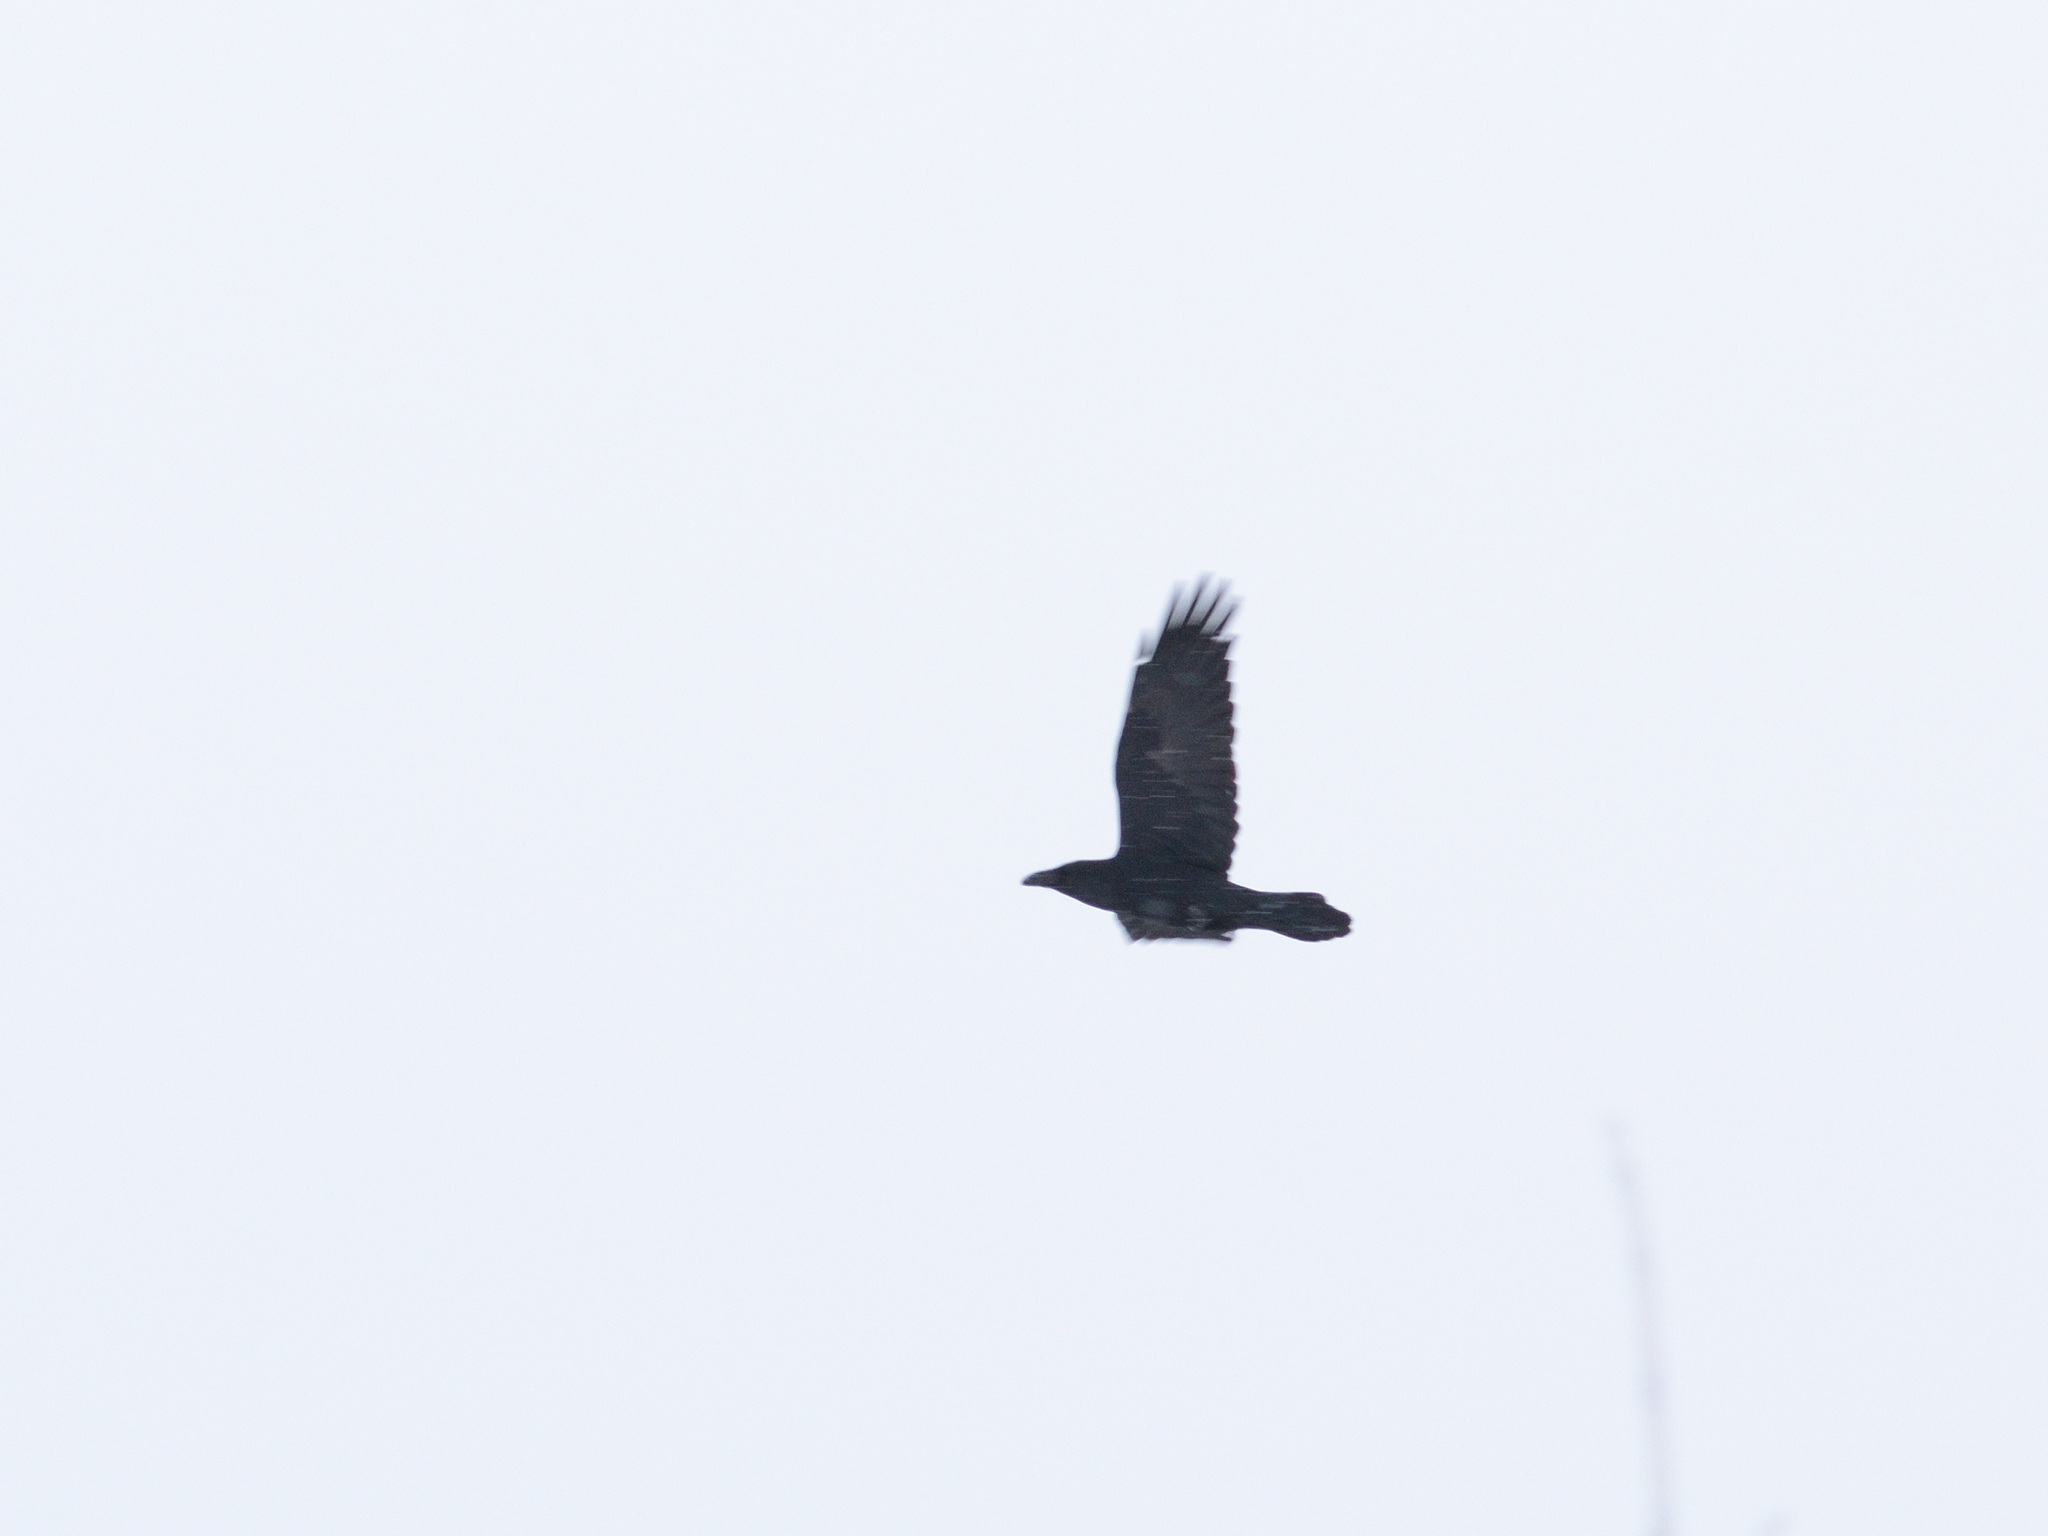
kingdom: Animalia
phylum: Chordata
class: Aves
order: Passeriformes
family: Corvidae
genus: Corvus
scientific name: Corvus corax
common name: Common raven
